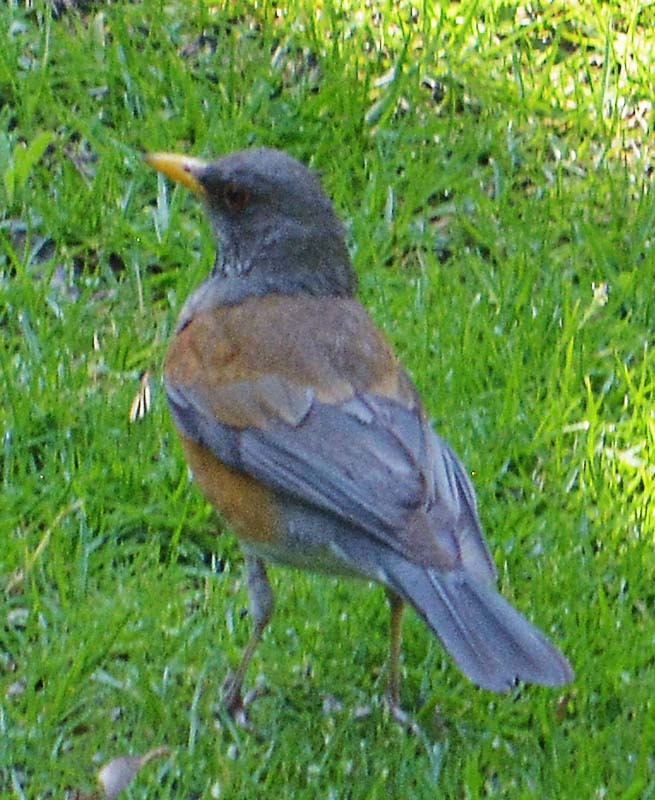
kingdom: Animalia
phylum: Chordata
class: Aves
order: Passeriformes
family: Turdidae
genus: Turdus
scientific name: Turdus rufopalliatus
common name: Rufous-backed robin
